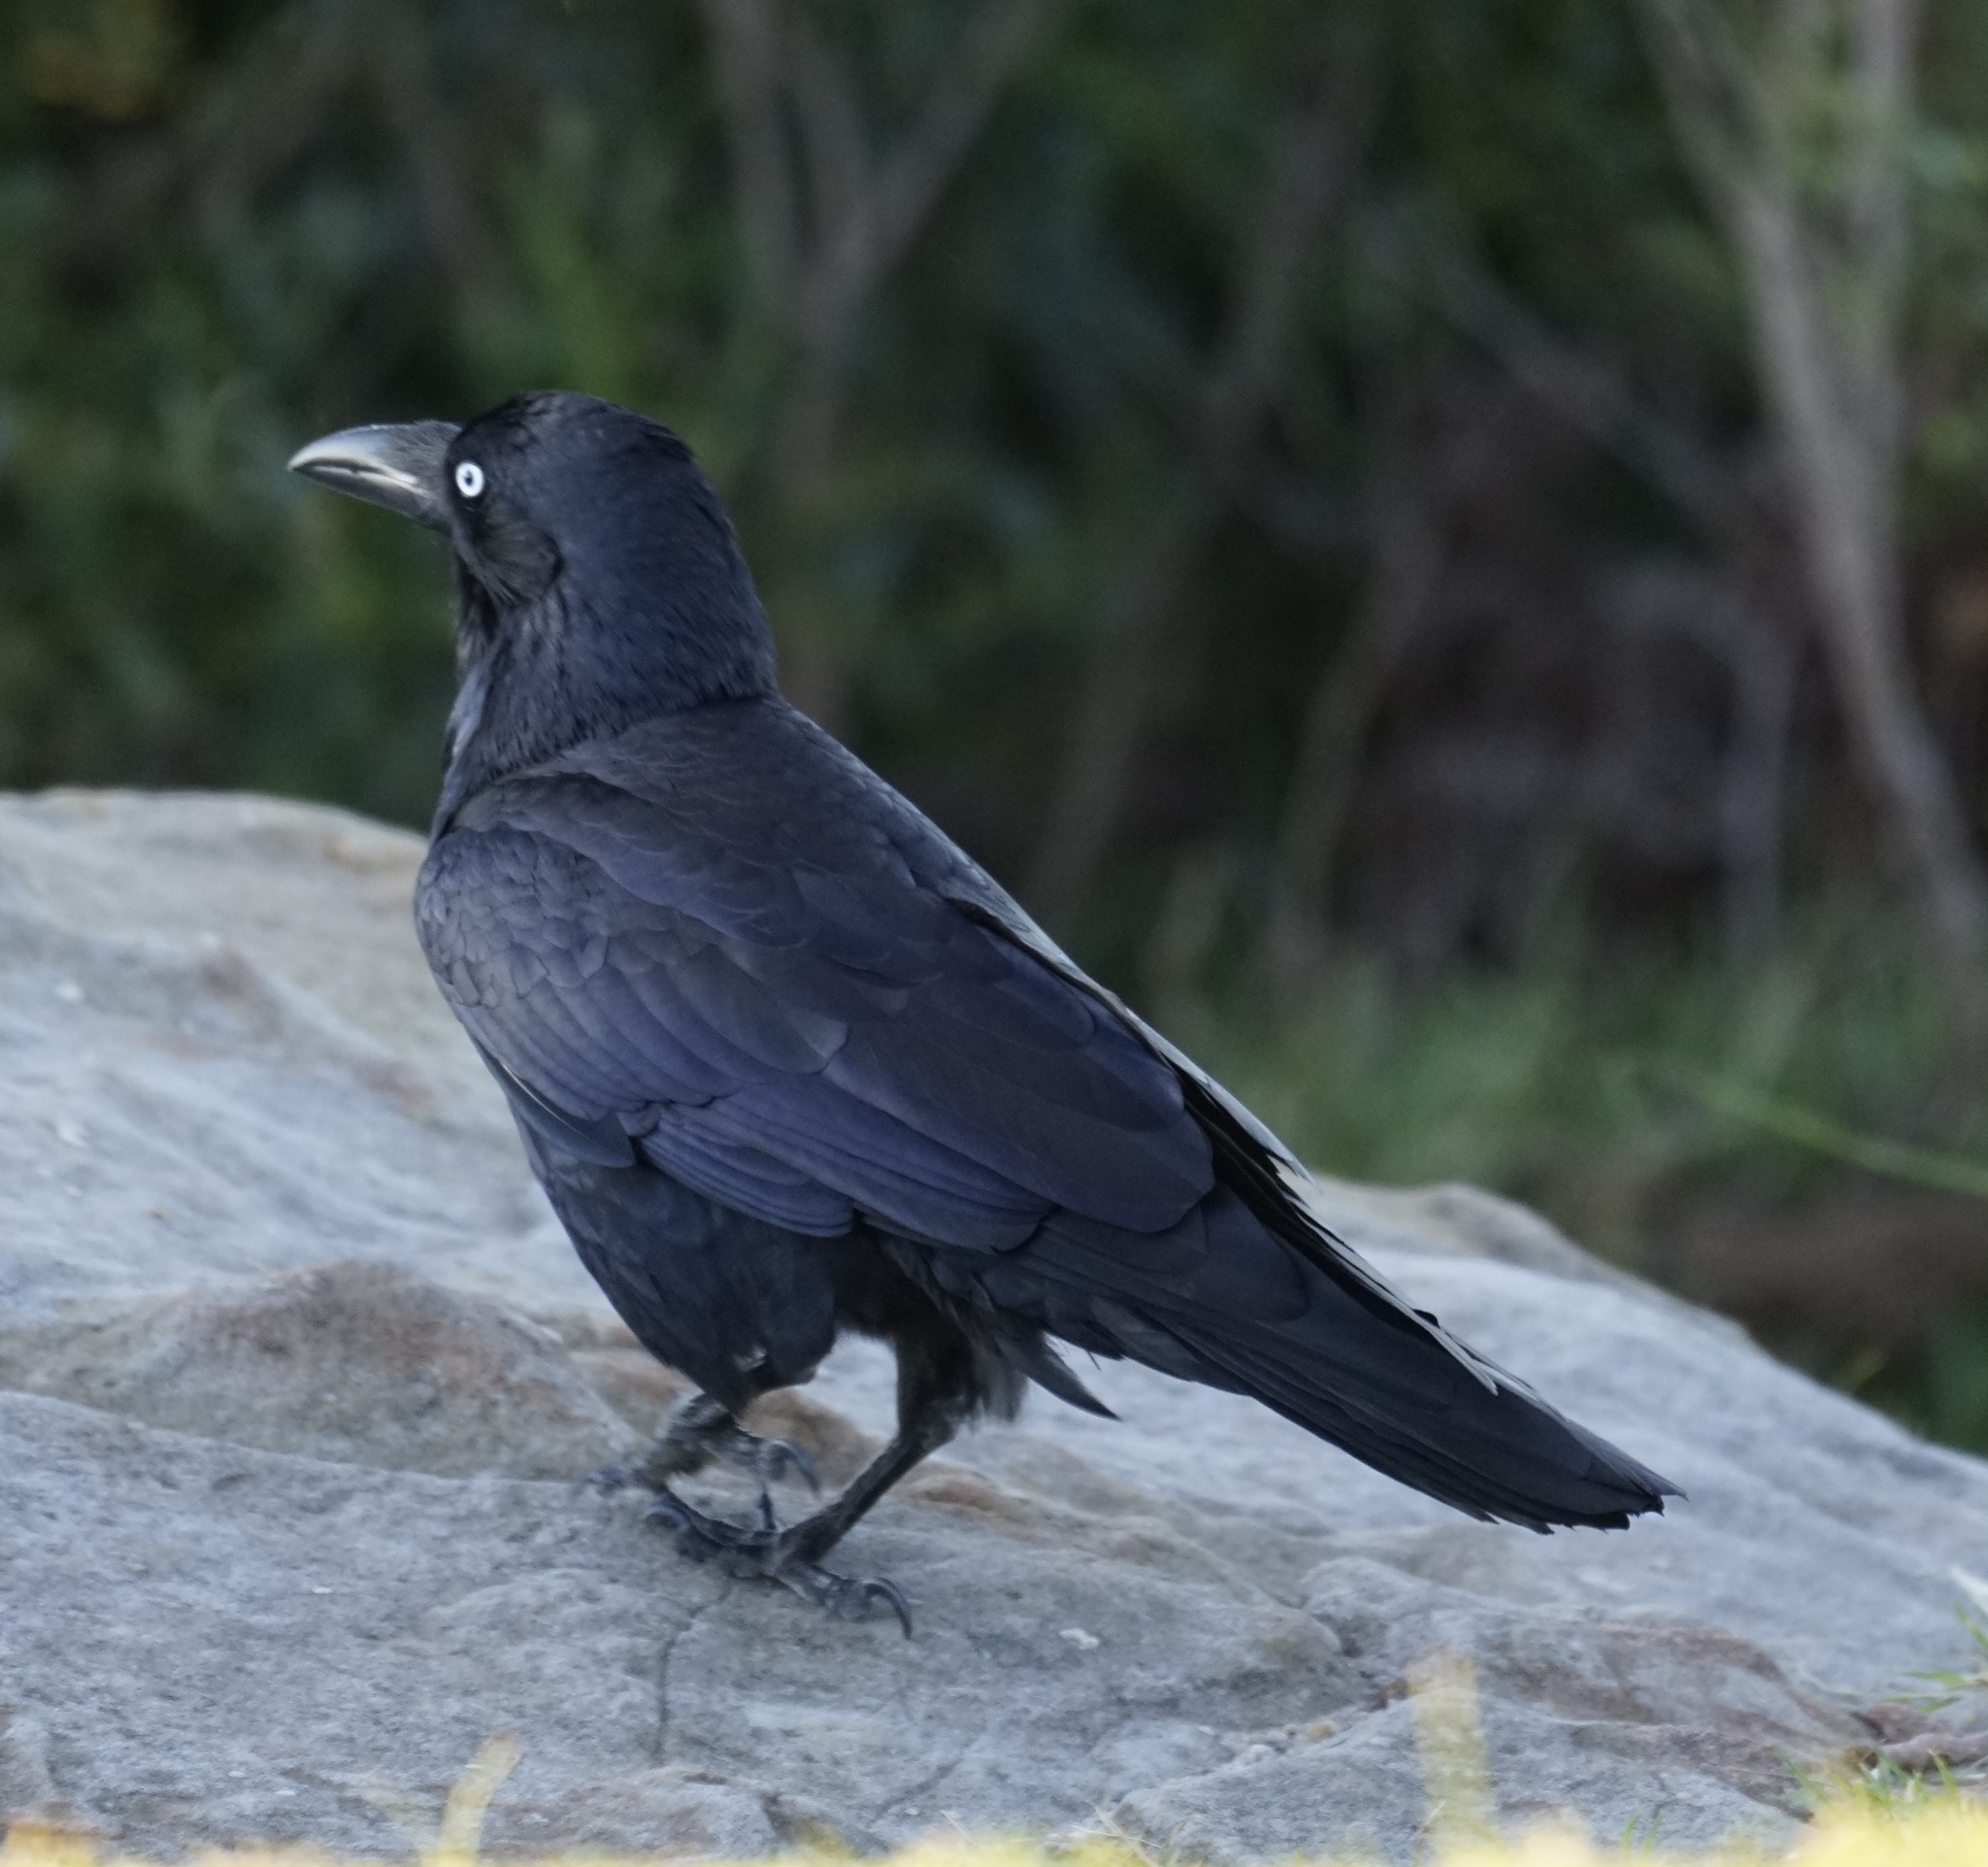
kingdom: Animalia
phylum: Chordata
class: Aves
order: Passeriformes
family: Corvidae
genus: Corvus
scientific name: Corvus coronoides
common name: Australian raven
